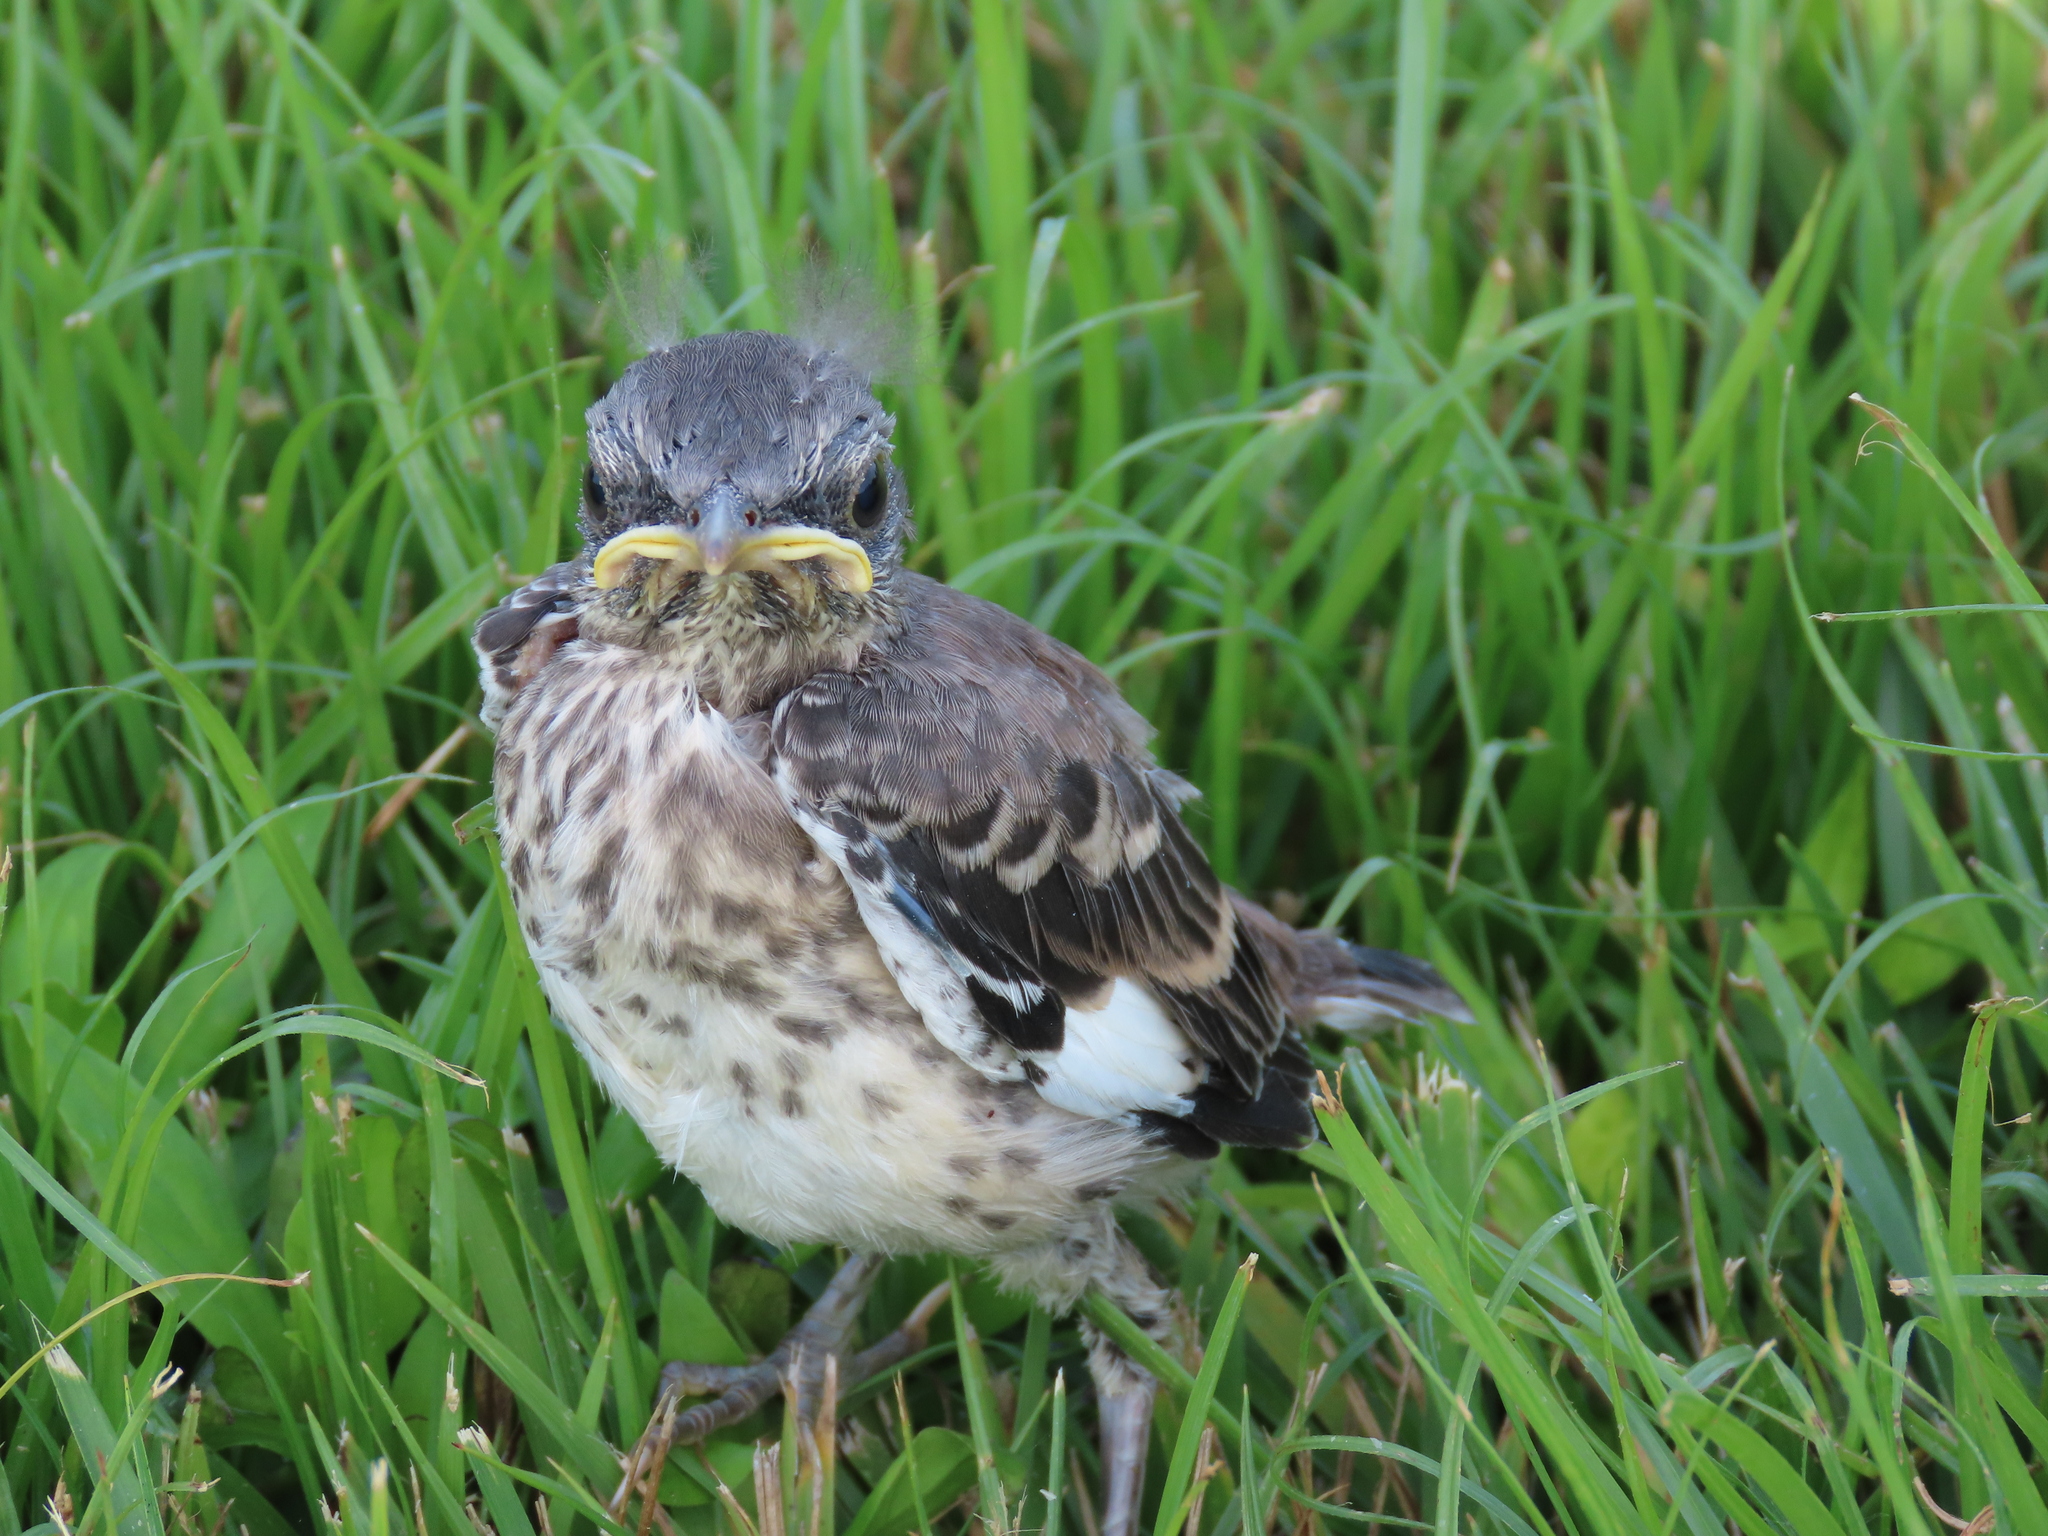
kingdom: Animalia
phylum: Chordata
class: Aves
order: Passeriformes
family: Mimidae
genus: Mimus
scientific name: Mimus polyglottos
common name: Northern mockingbird
